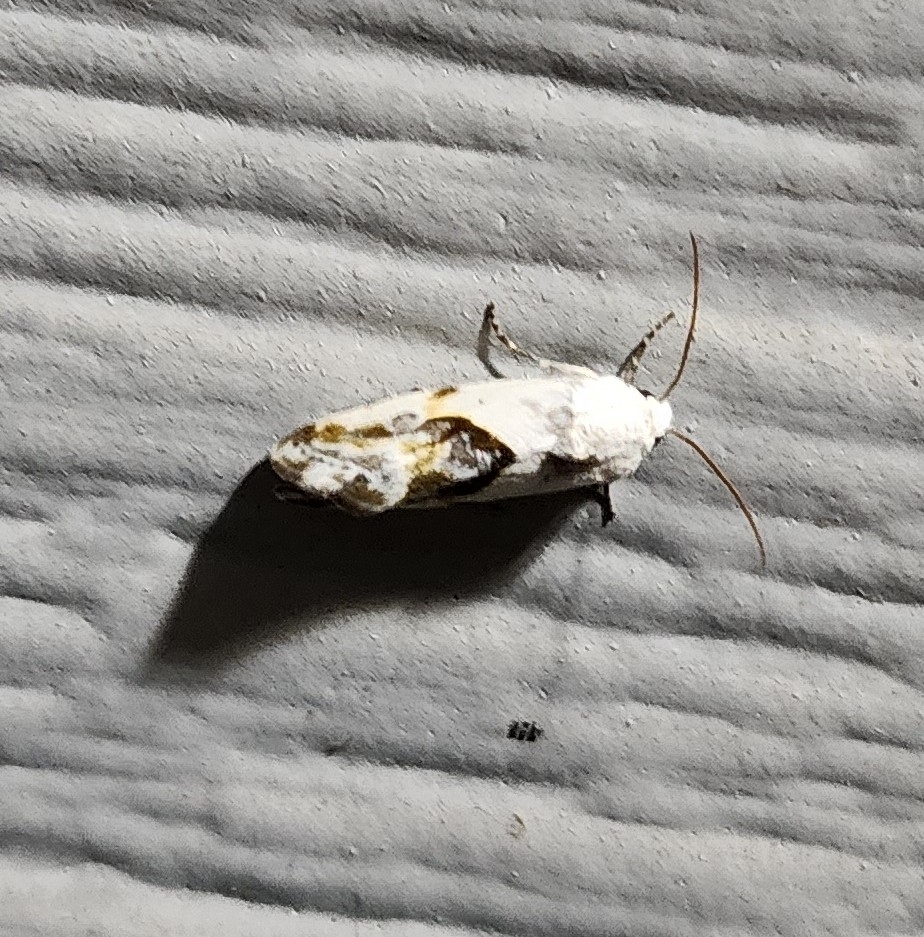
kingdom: Animalia
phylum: Arthropoda
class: Insecta
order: Lepidoptera
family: Noctuidae
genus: Acontia
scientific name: Acontia candefacta
